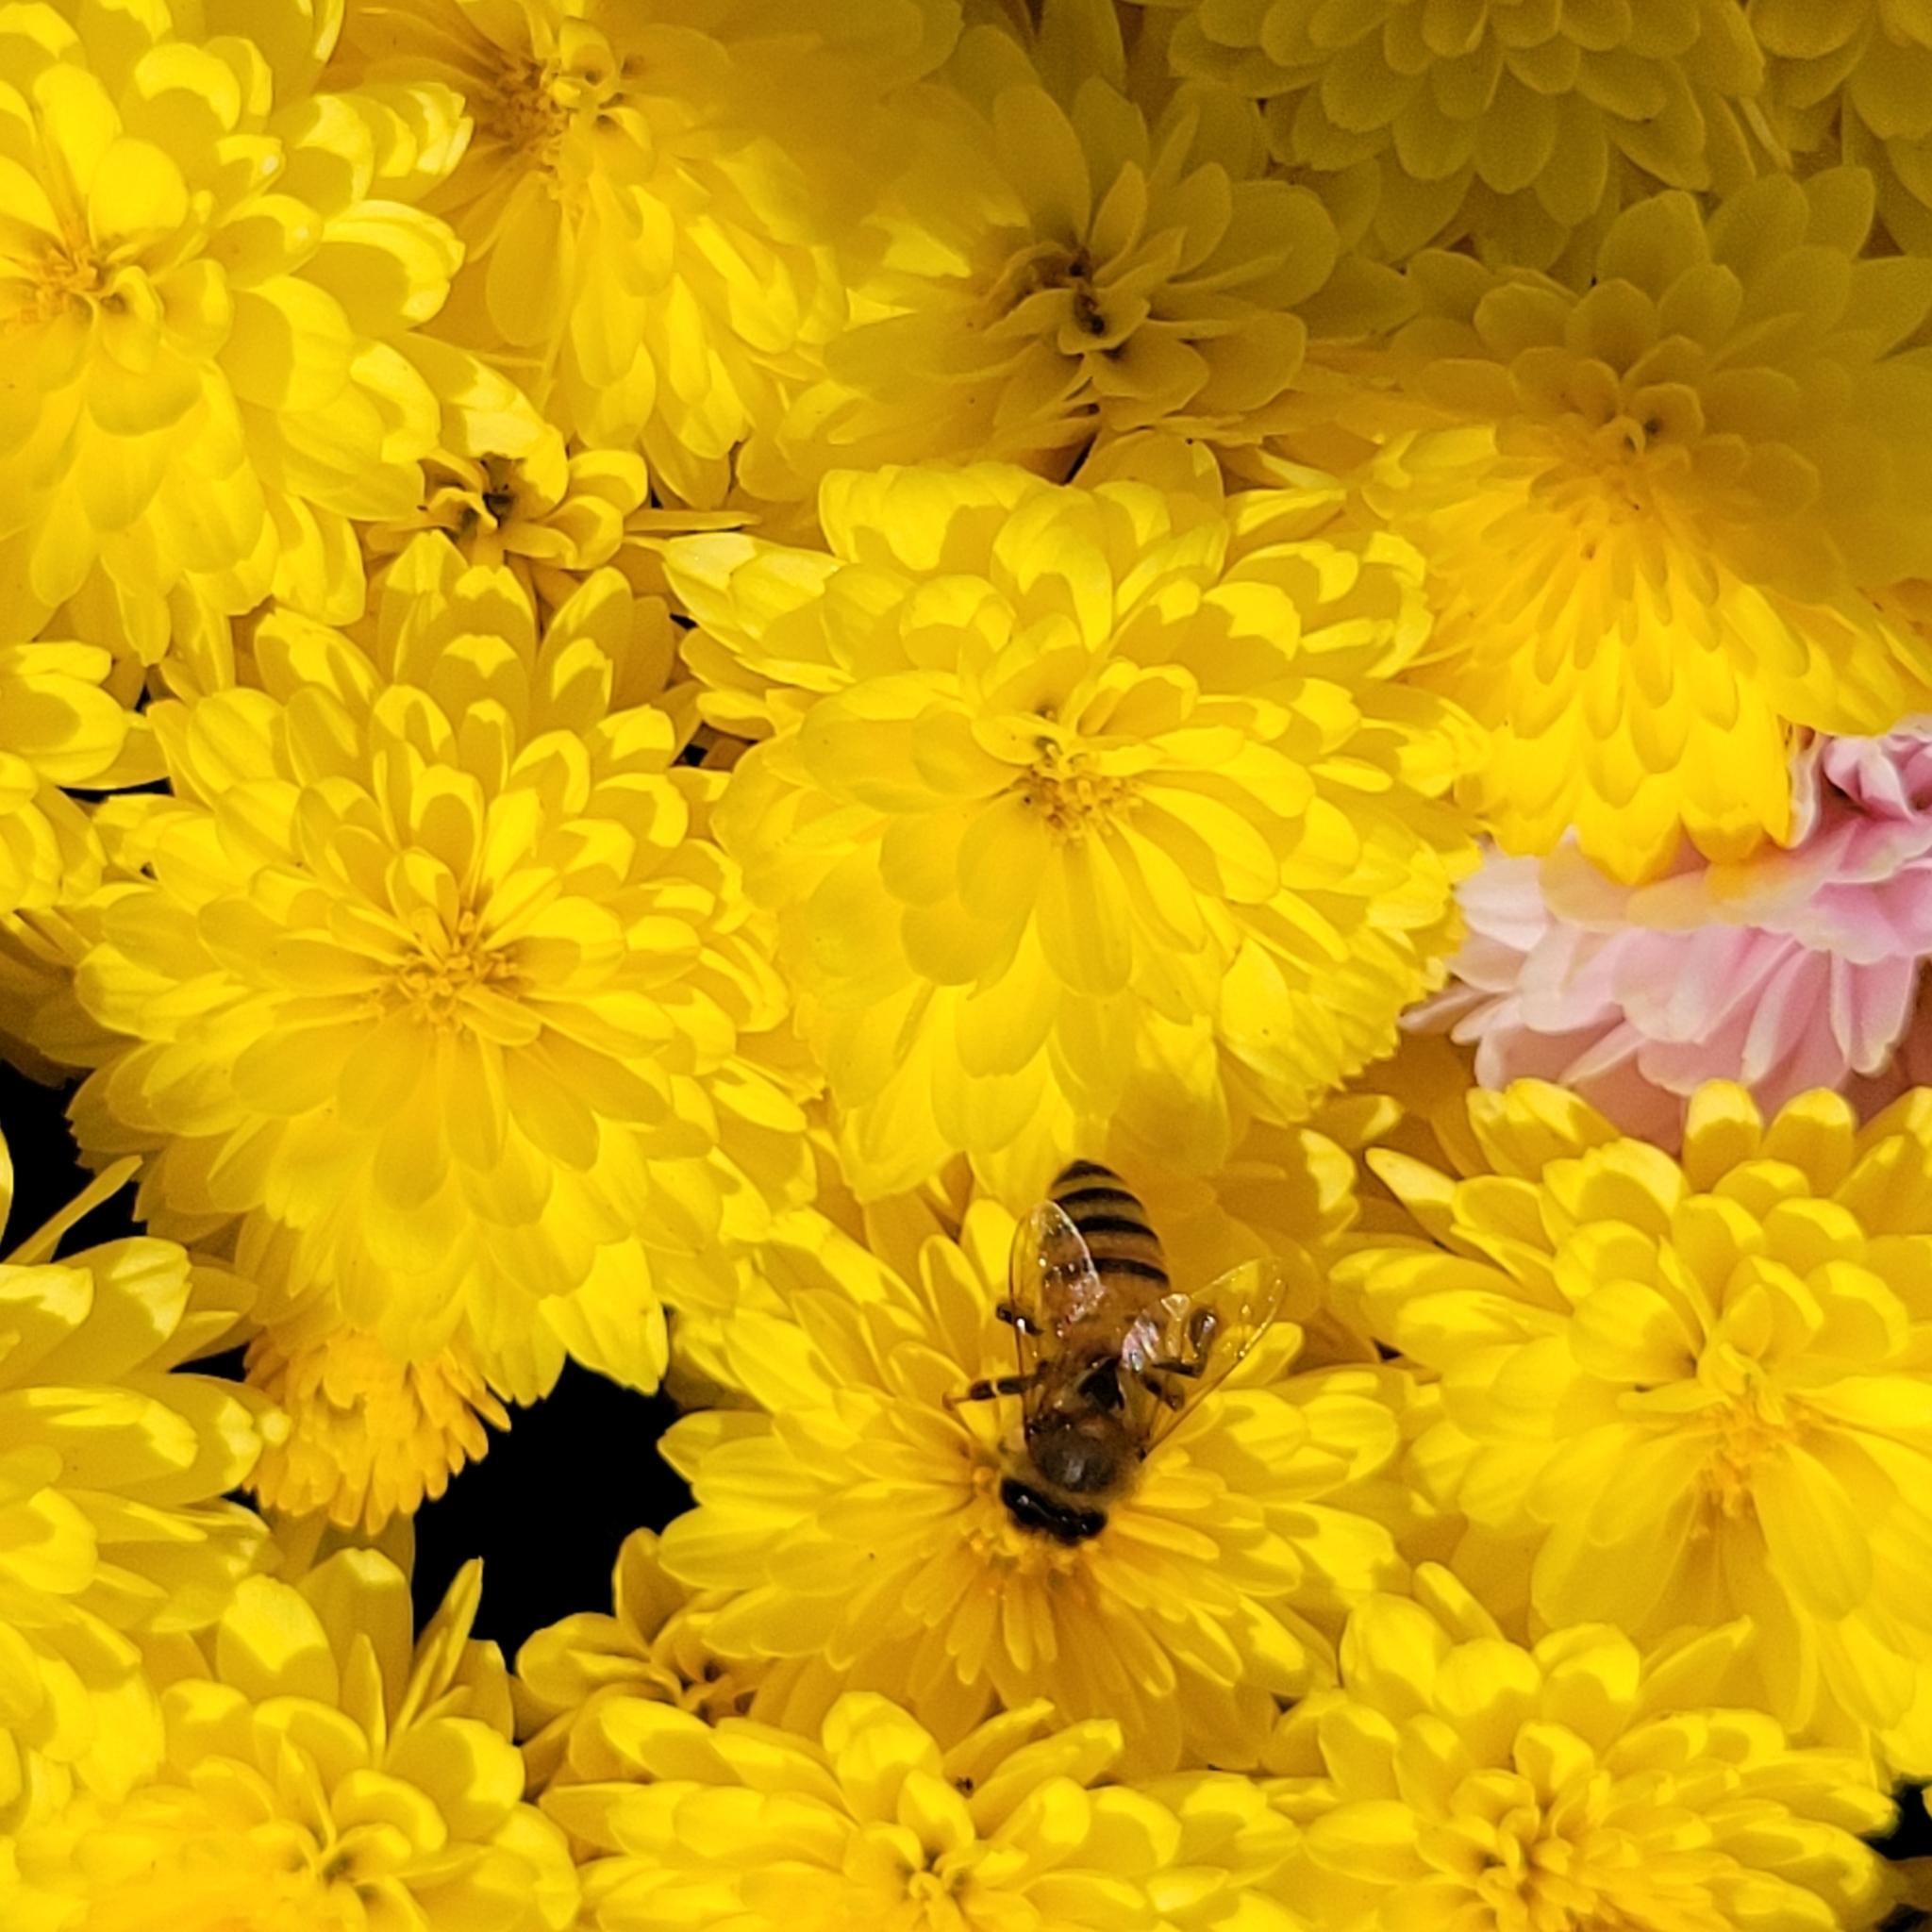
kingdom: Animalia
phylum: Arthropoda
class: Insecta
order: Hymenoptera
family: Apidae
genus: Apis
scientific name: Apis mellifera
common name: Honey bee
